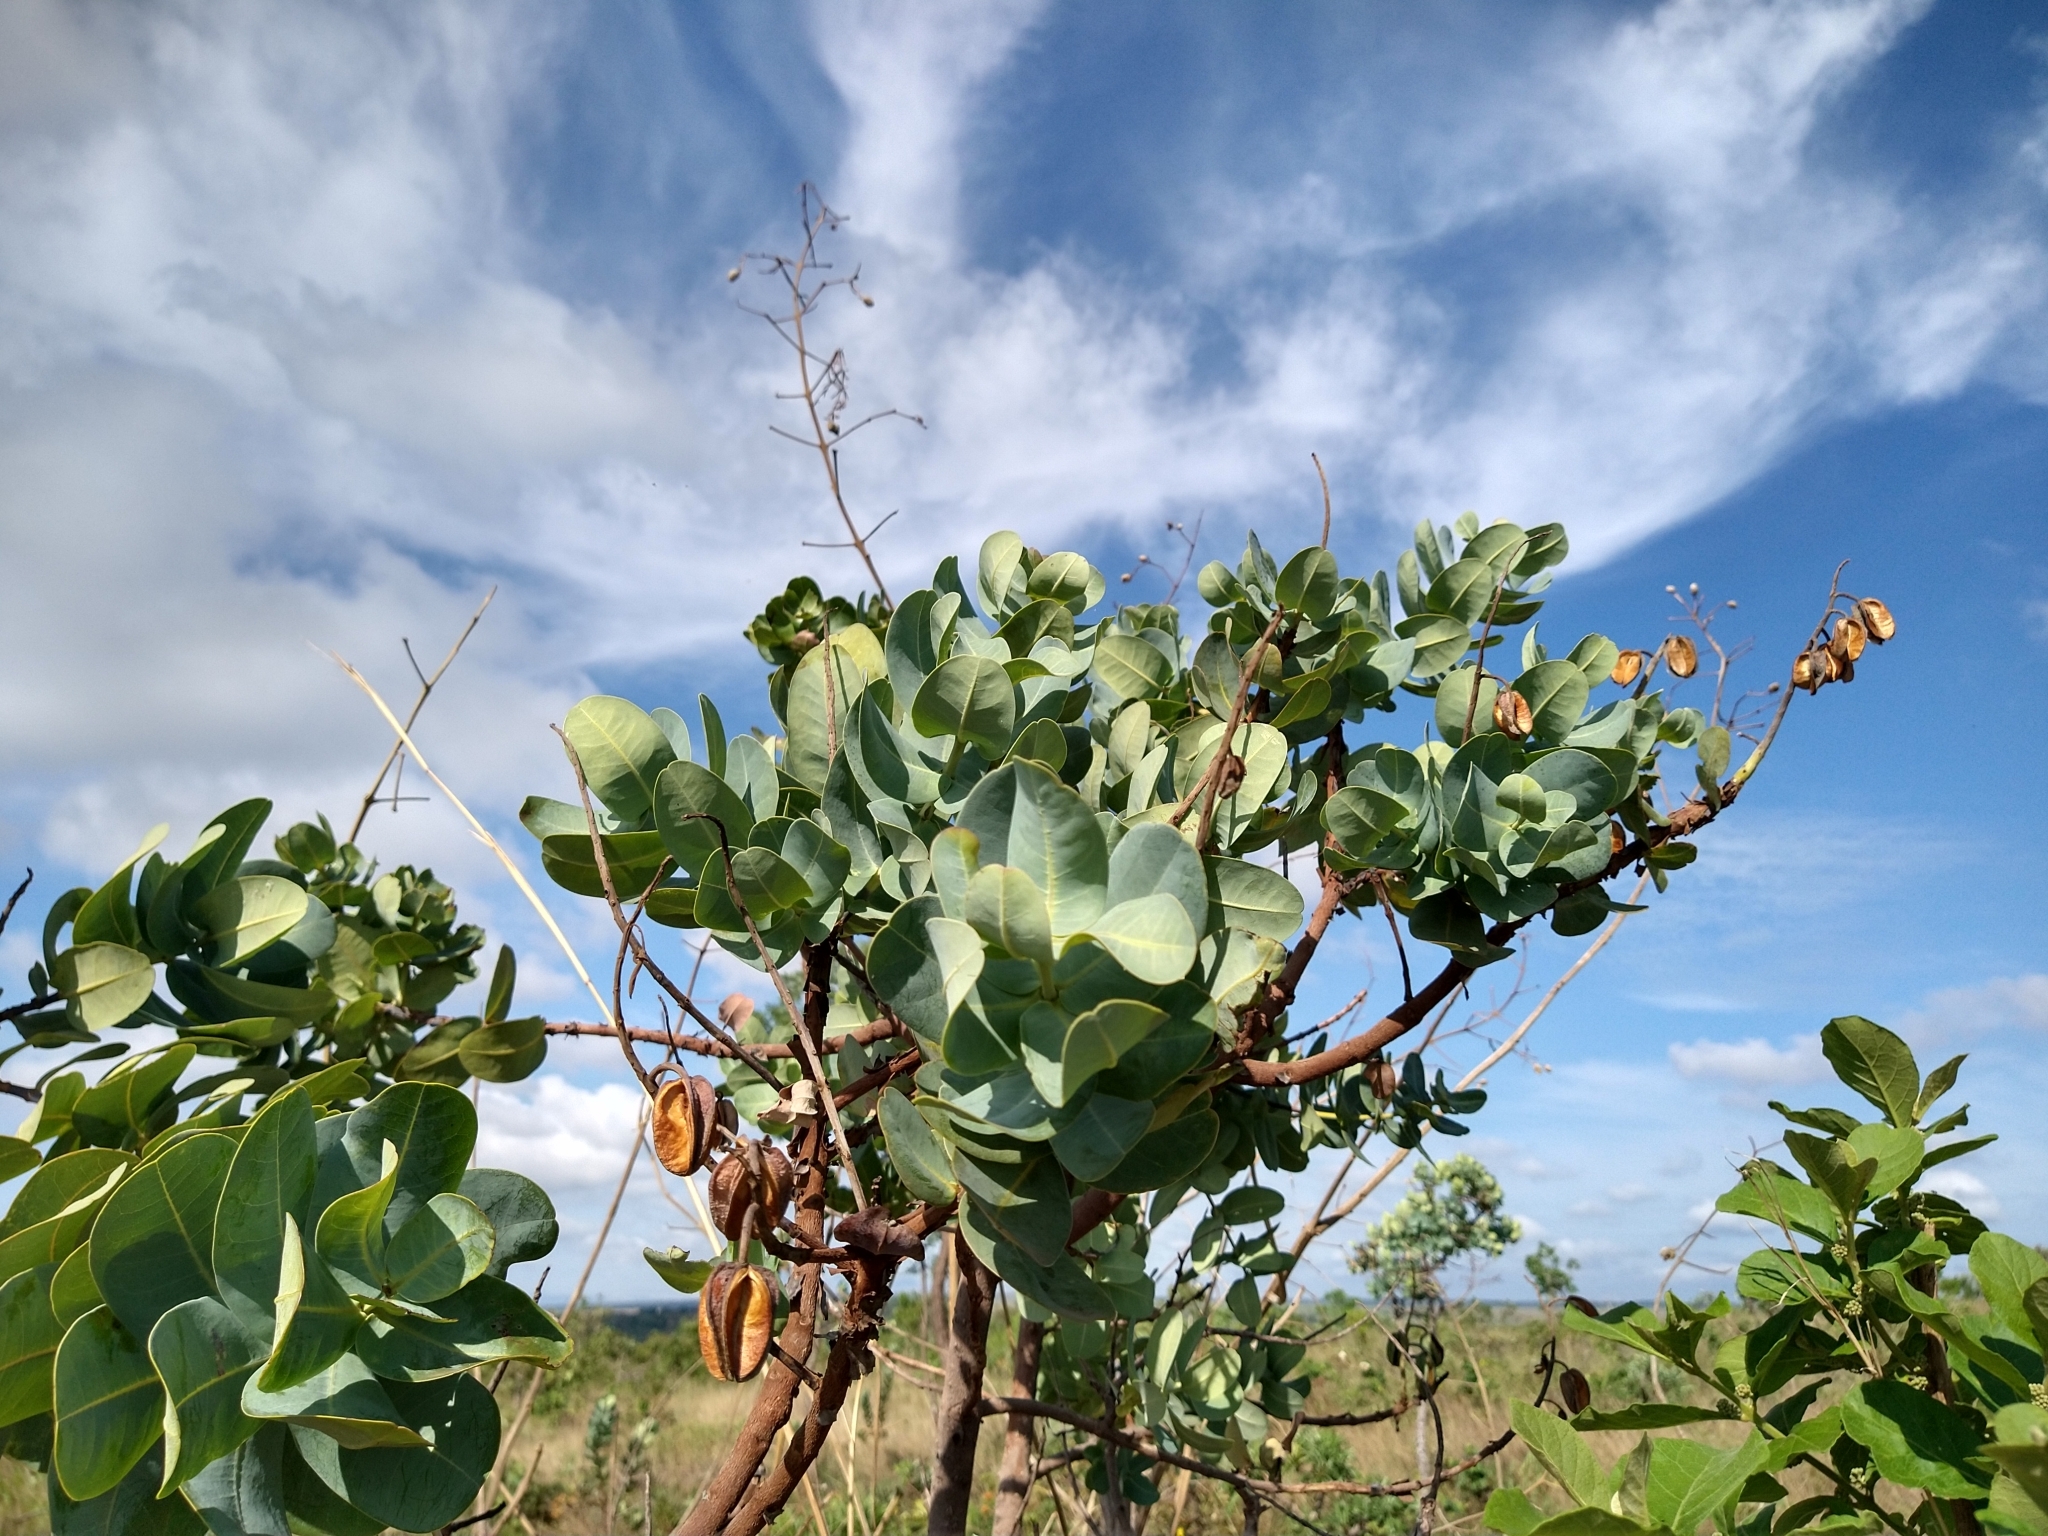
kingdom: Plantae
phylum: Tracheophyta
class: Magnoliopsida
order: Myrtales
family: Vochysiaceae
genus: Vochysia
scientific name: Vochysia elliptica
